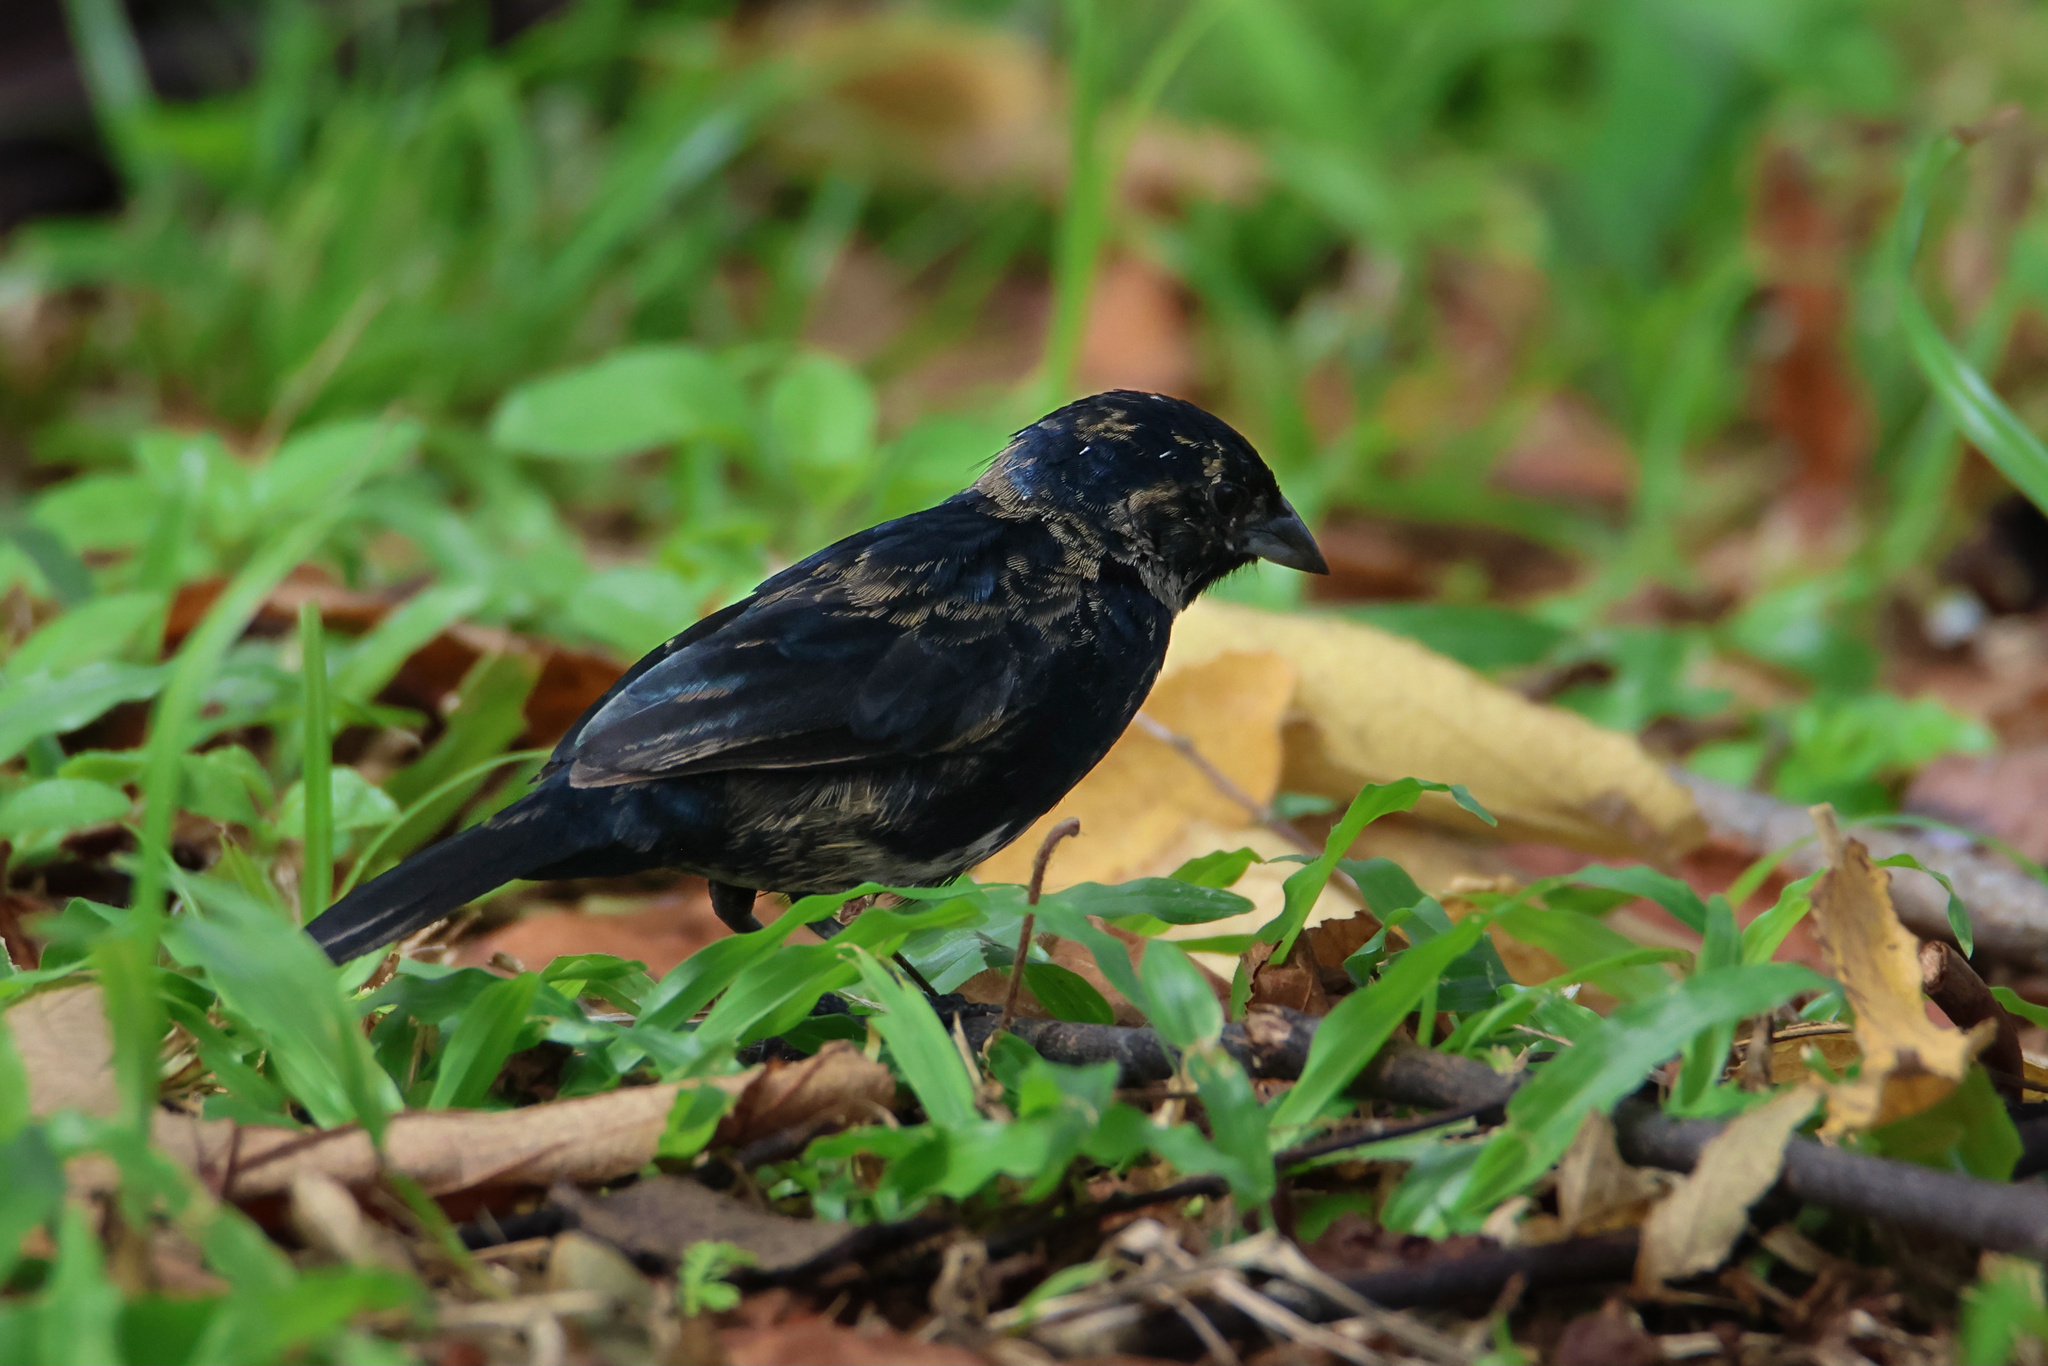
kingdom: Animalia
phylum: Chordata
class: Aves
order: Passeriformes
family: Thraupidae
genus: Volatinia
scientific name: Volatinia jacarina
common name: Blue-black grassquit
